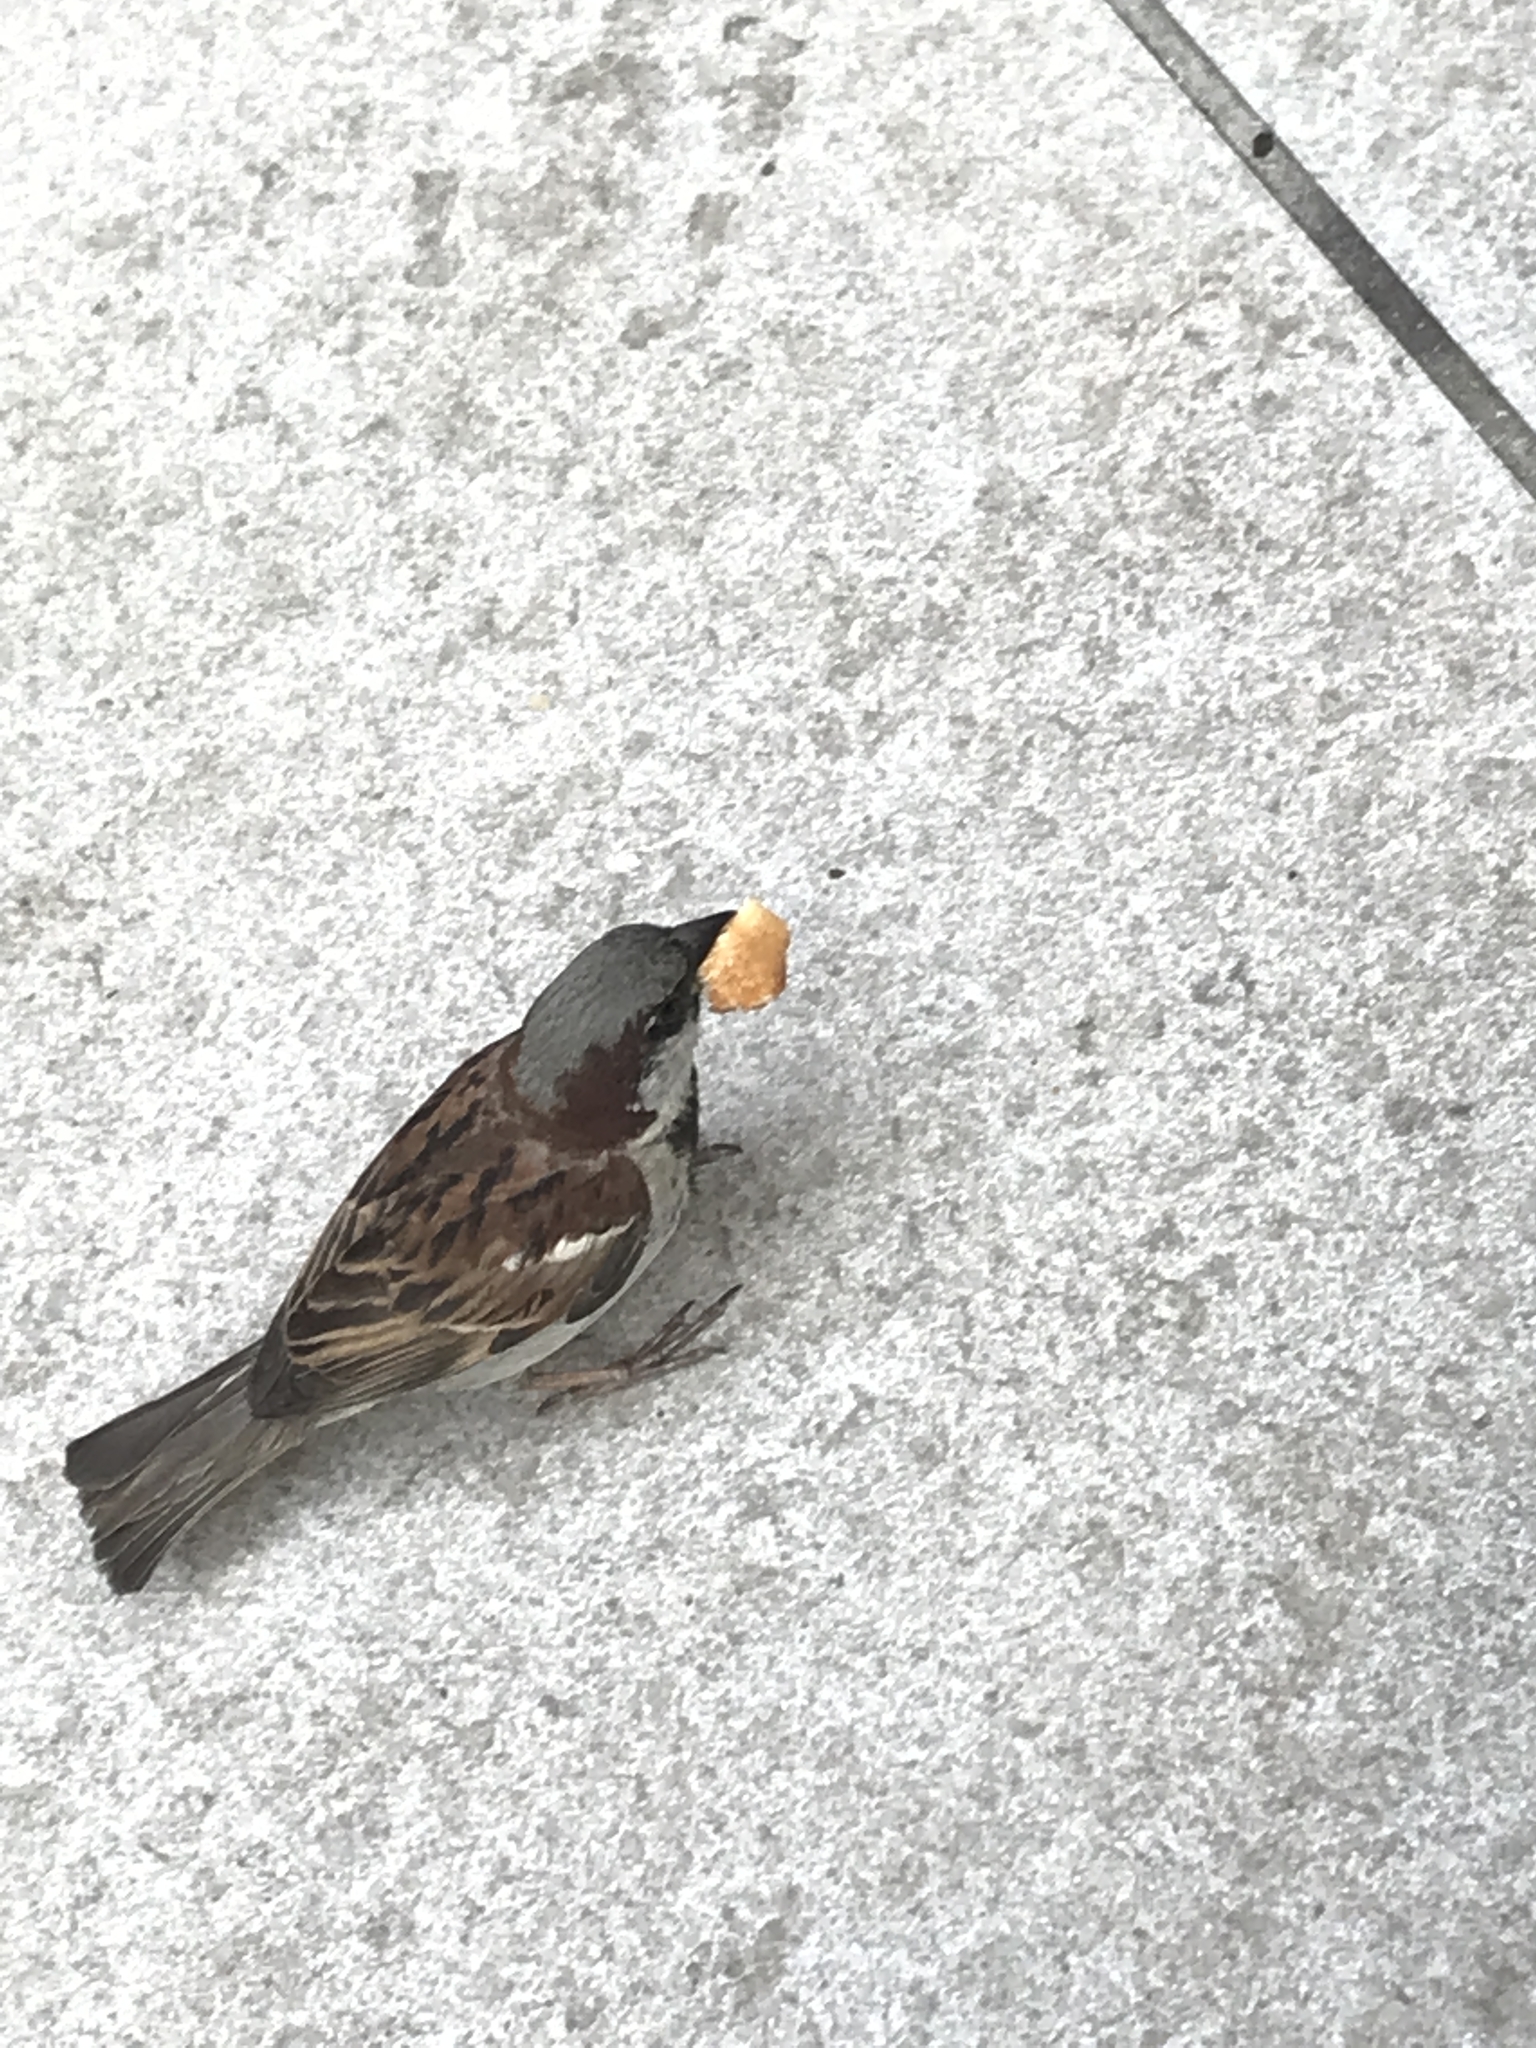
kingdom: Animalia
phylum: Chordata
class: Aves
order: Passeriformes
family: Passeridae
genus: Passer
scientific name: Passer domesticus
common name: House sparrow
